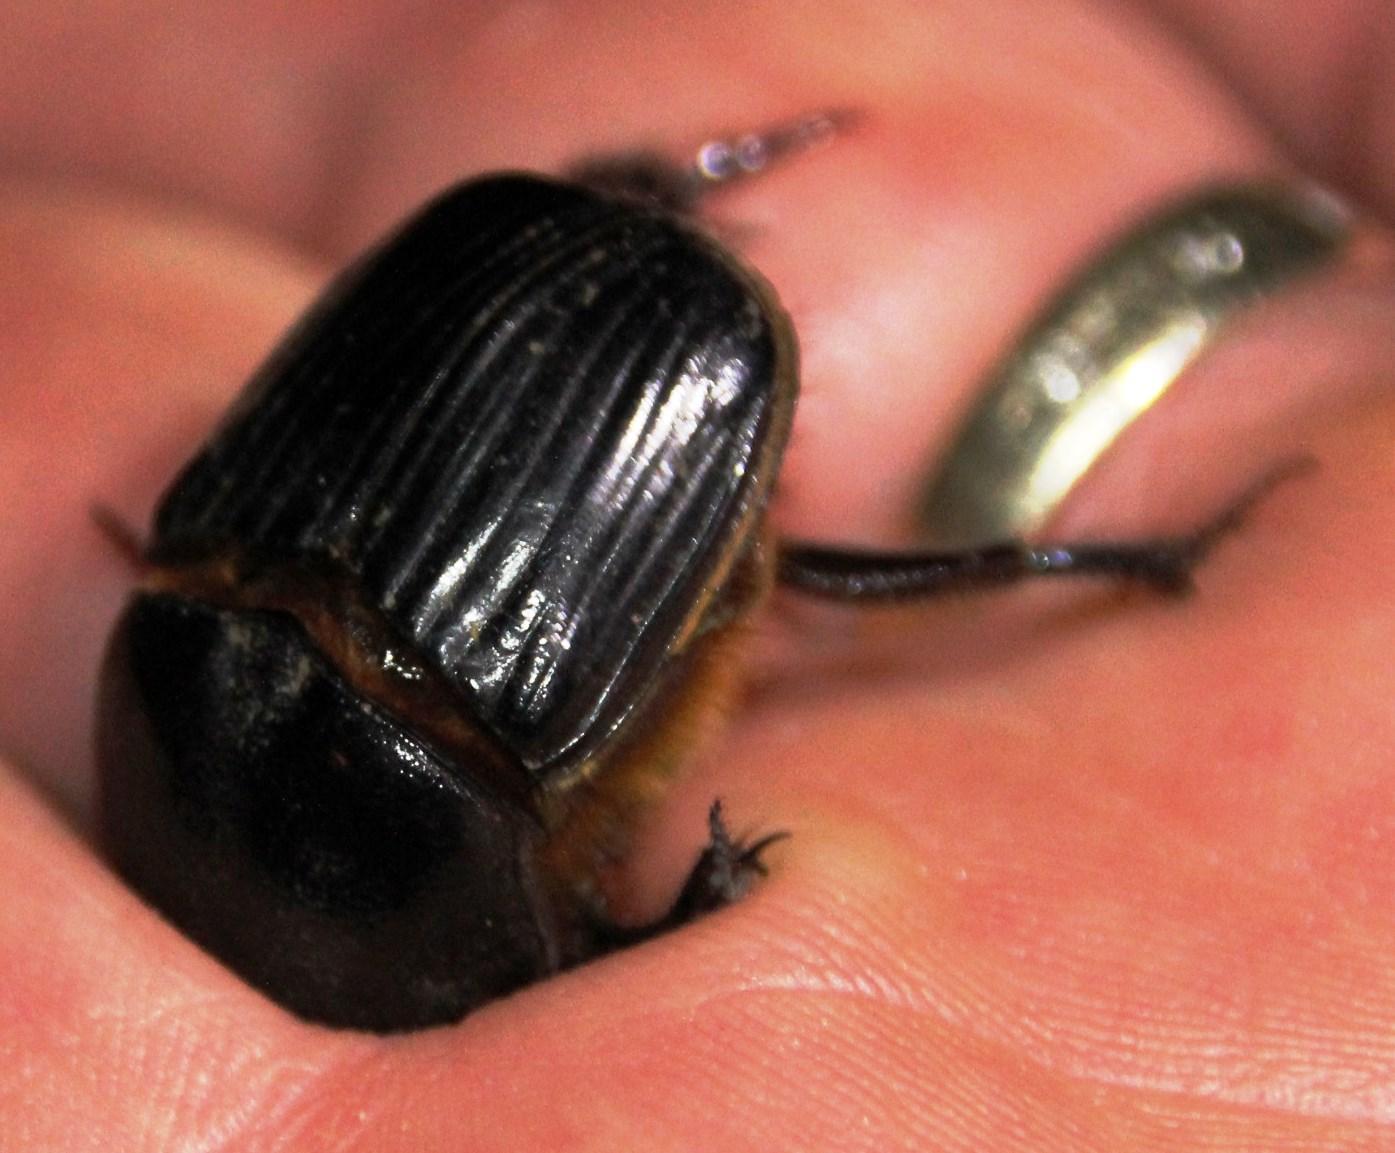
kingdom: Animalia
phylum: Arthropoda
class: Insecta
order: Coleoptera
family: Scarabaeidae
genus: Onitis
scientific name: Onitis curvipes
